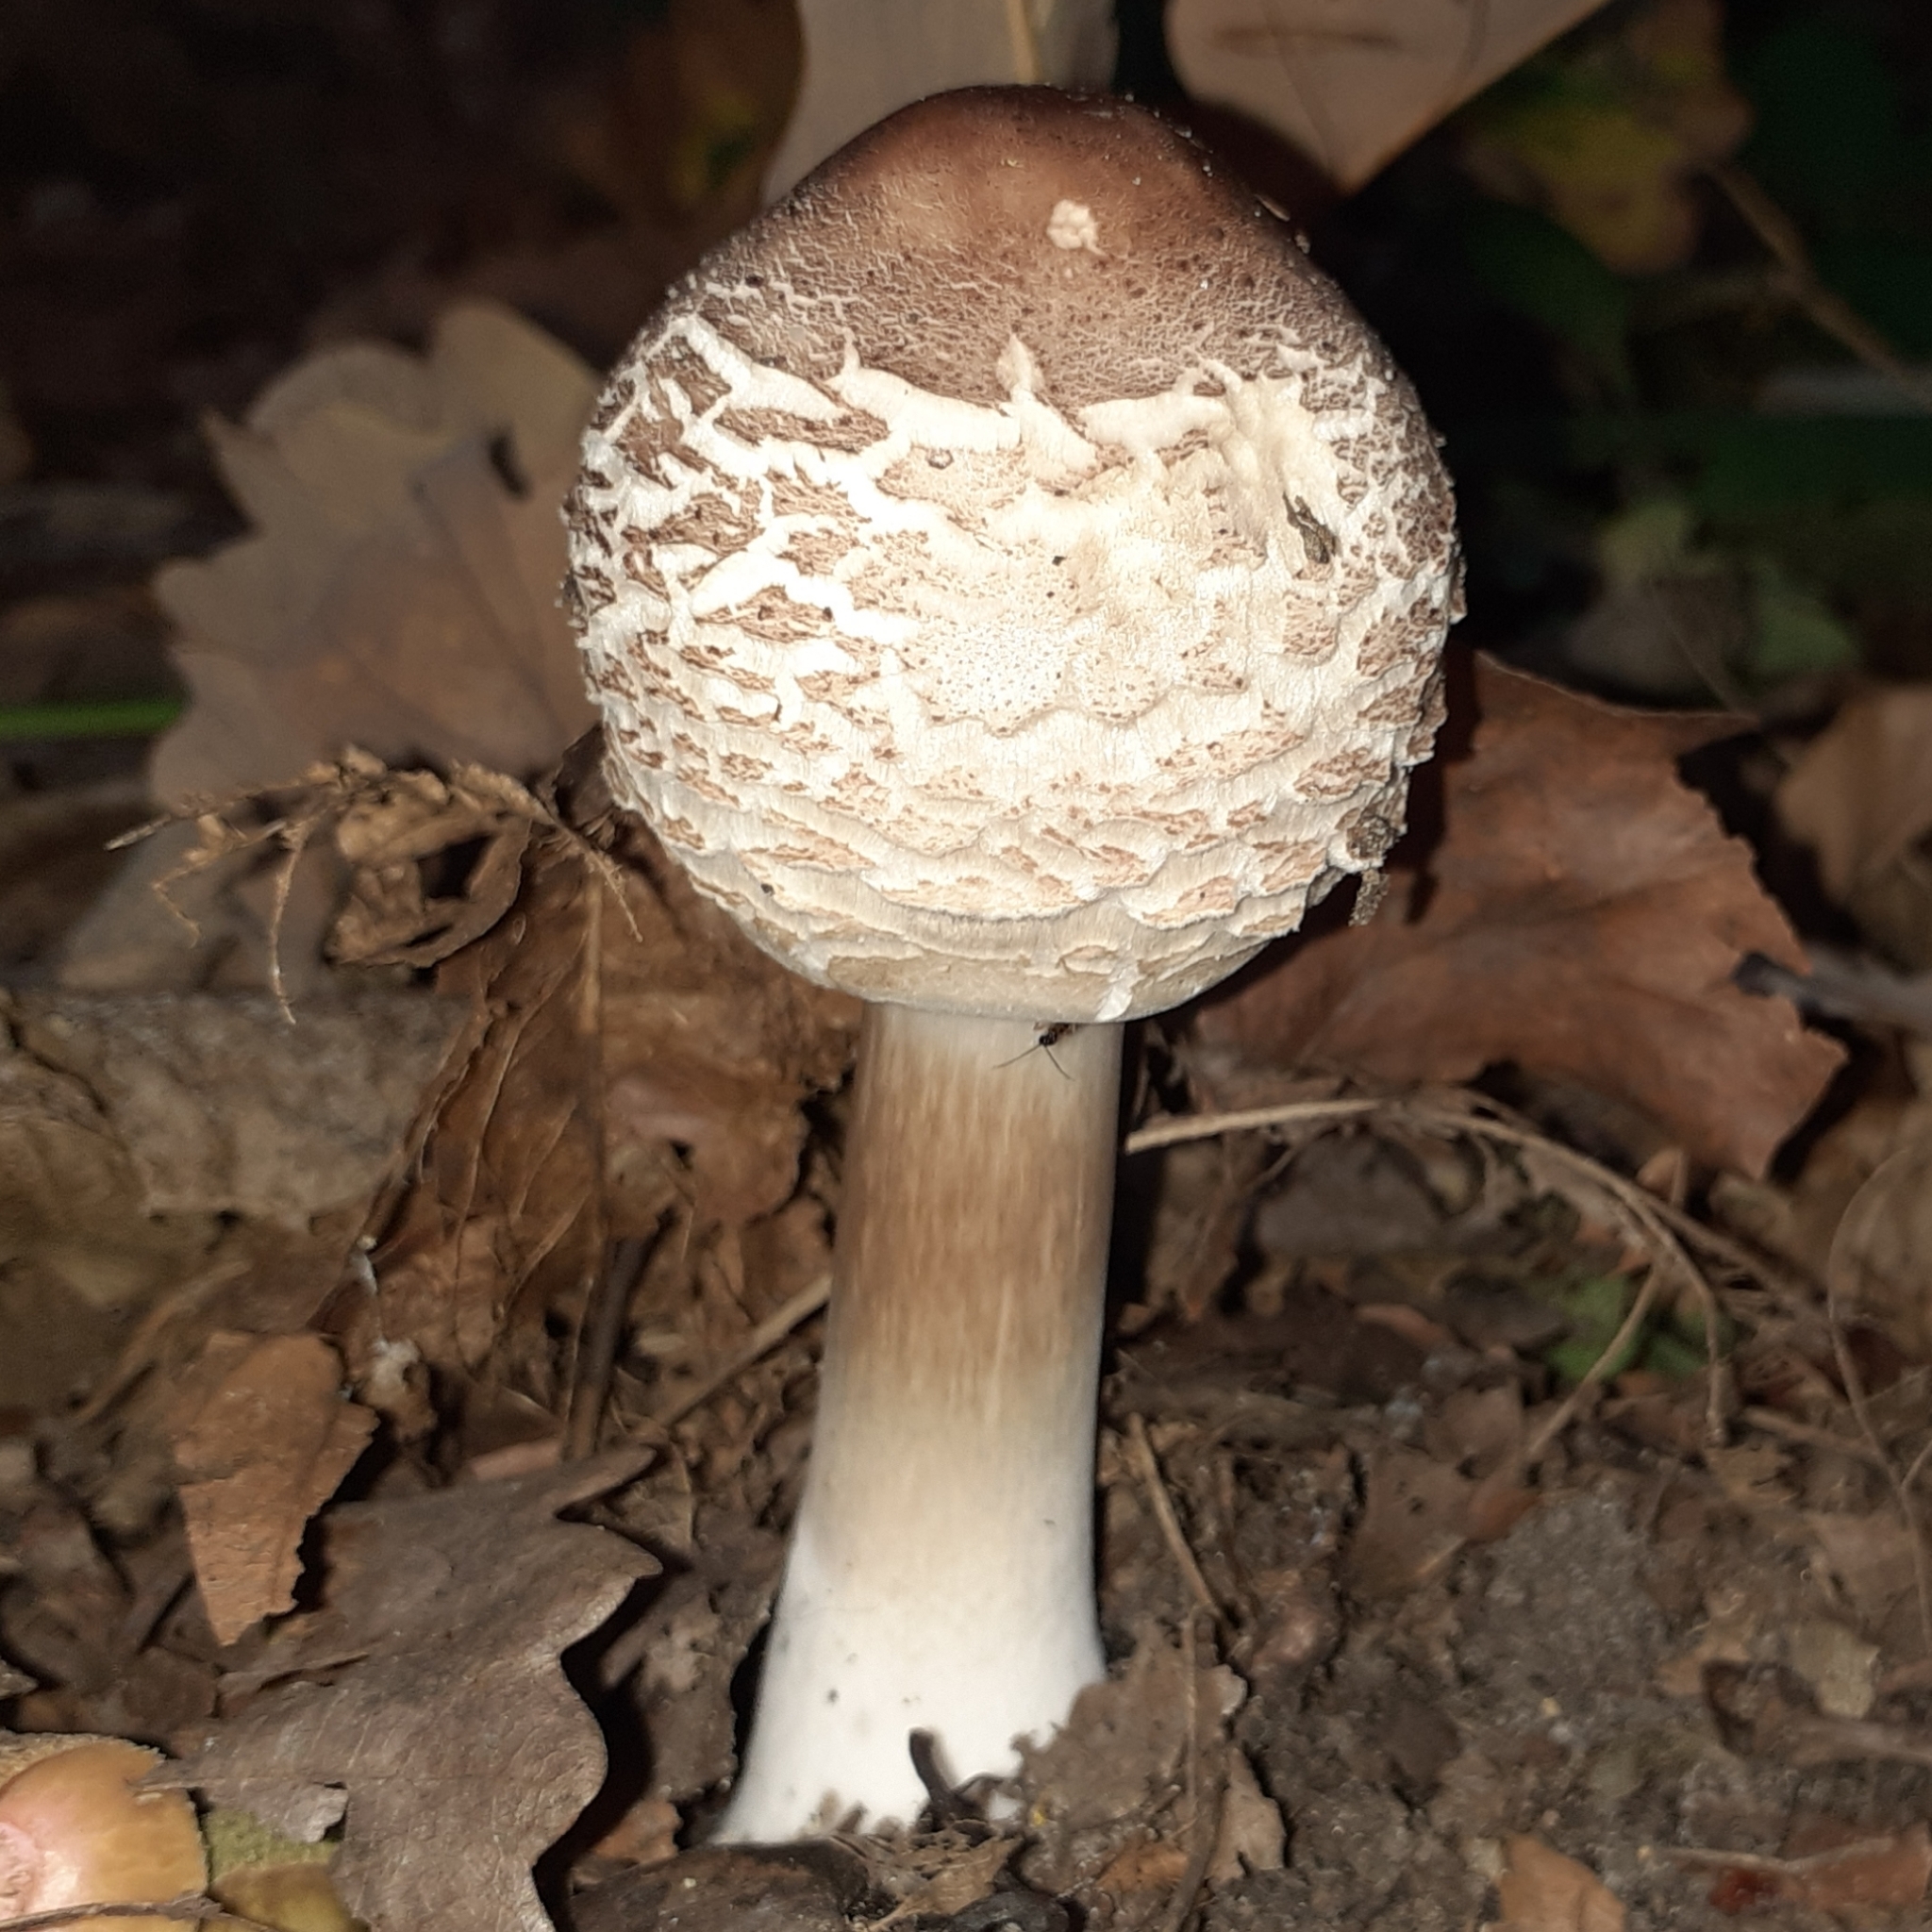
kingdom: Fungi
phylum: Basidiomycota
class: Agaricomycetes
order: Agaricales
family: Agaricaceae
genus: Chlorophyllum
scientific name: Chlorophyllum rhacodes
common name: Shaggy parasol
